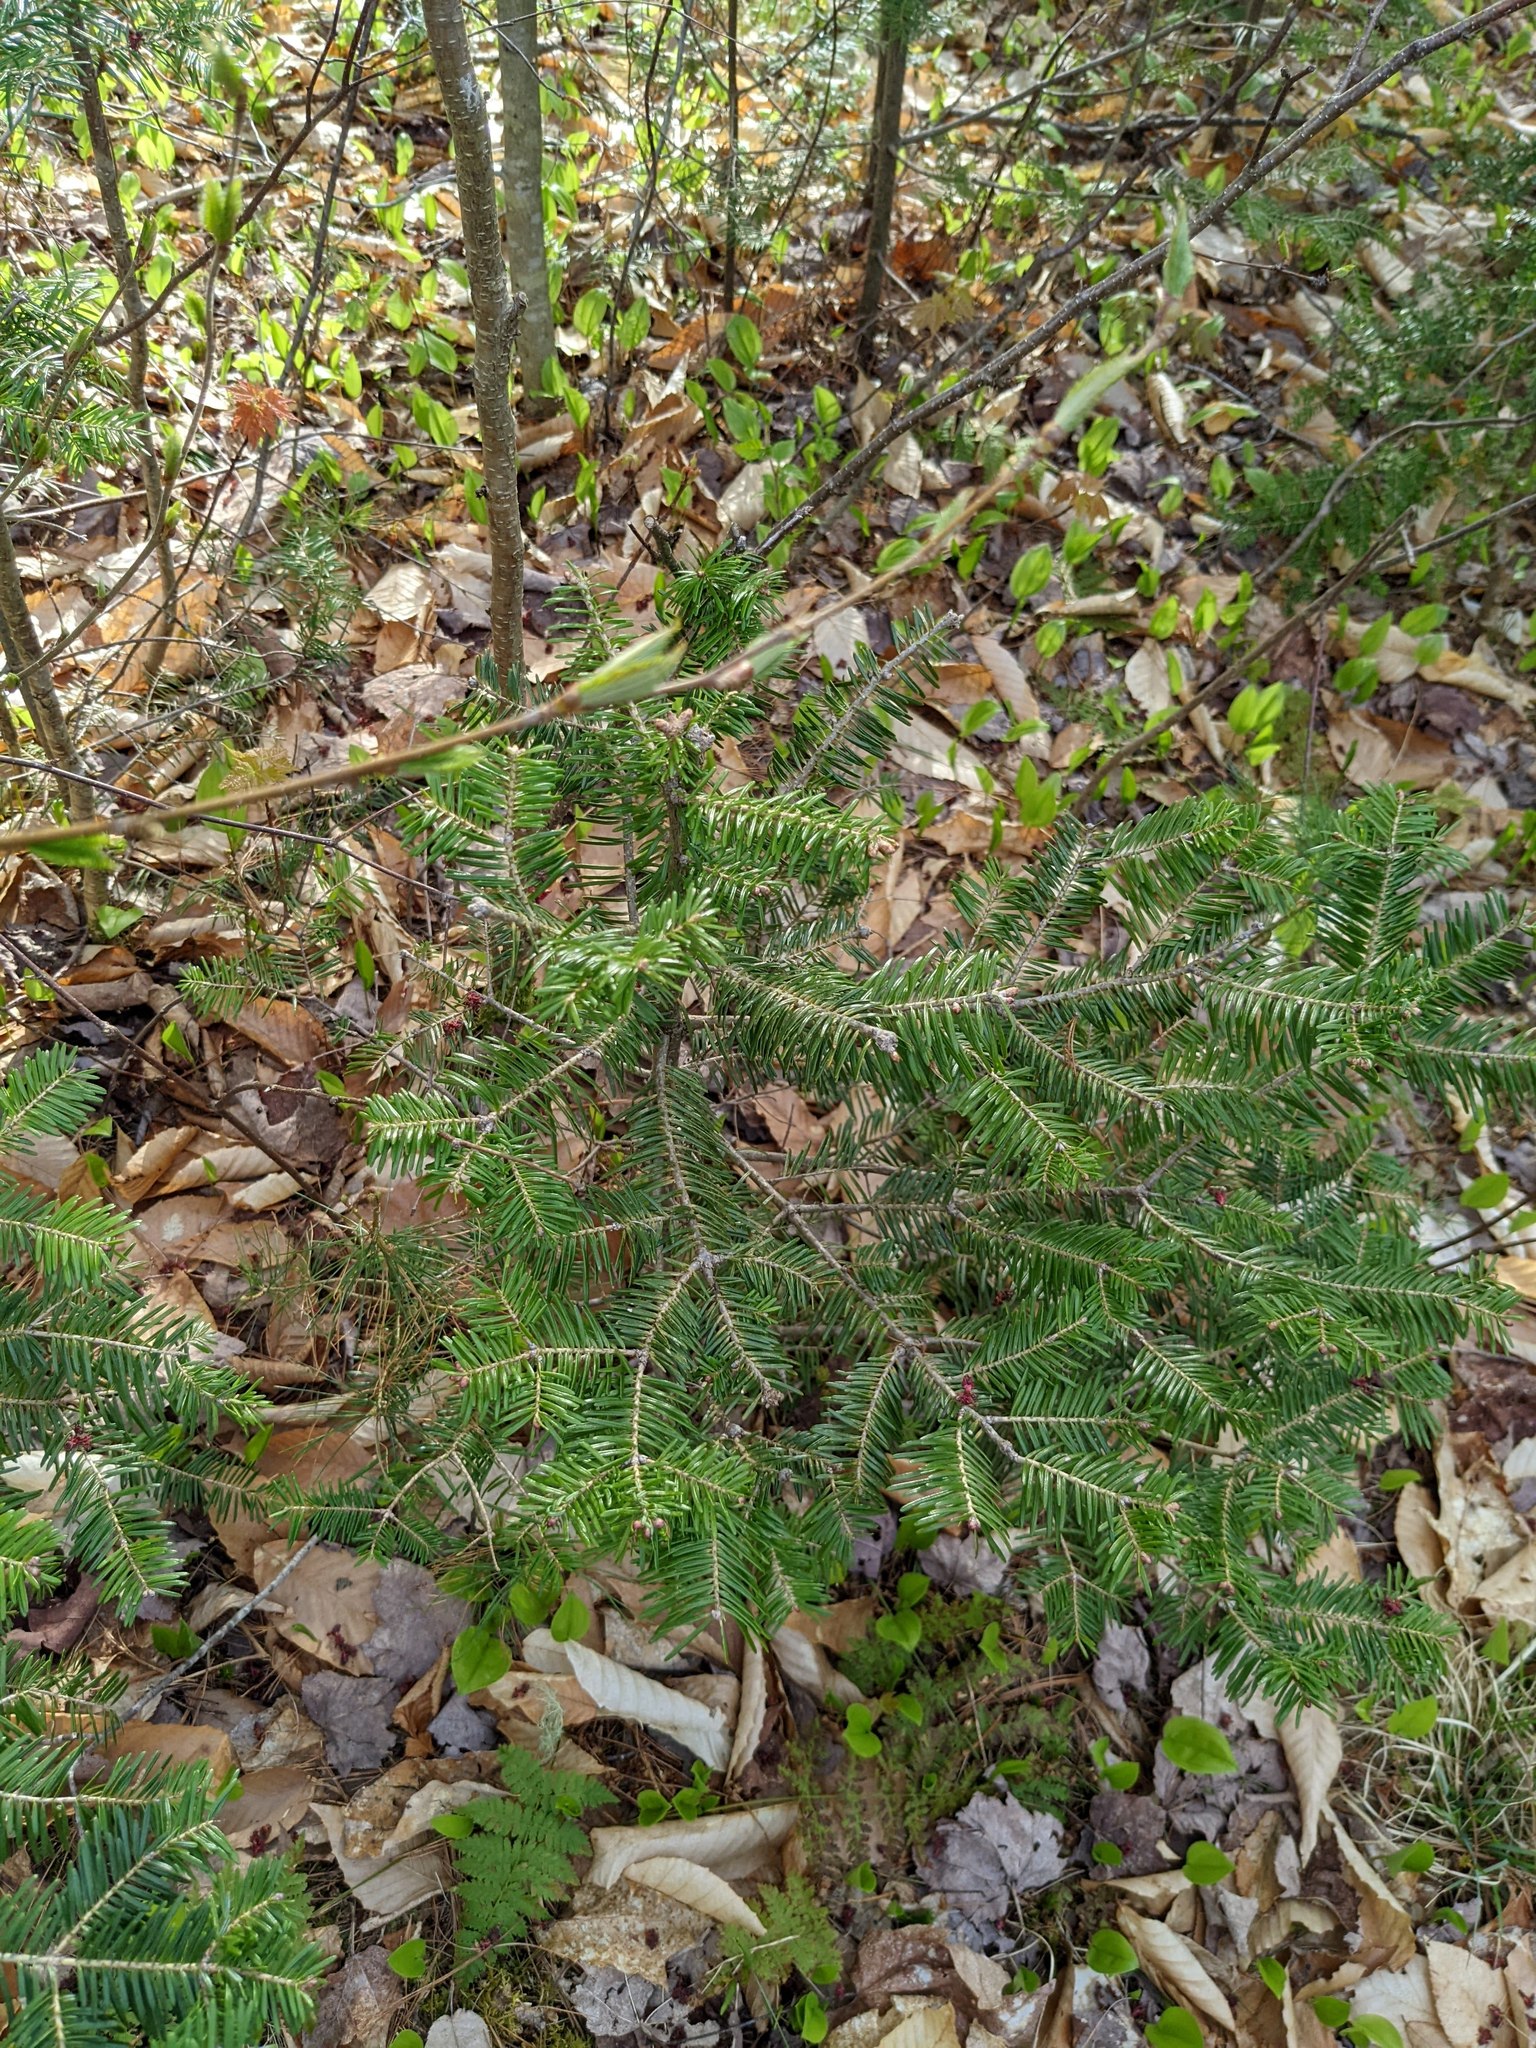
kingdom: Plantae
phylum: Tracheophyta
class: Pinopsida
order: Pinales
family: Pinaceae
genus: Abies
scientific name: Abies balsamea
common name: Balsam fir
